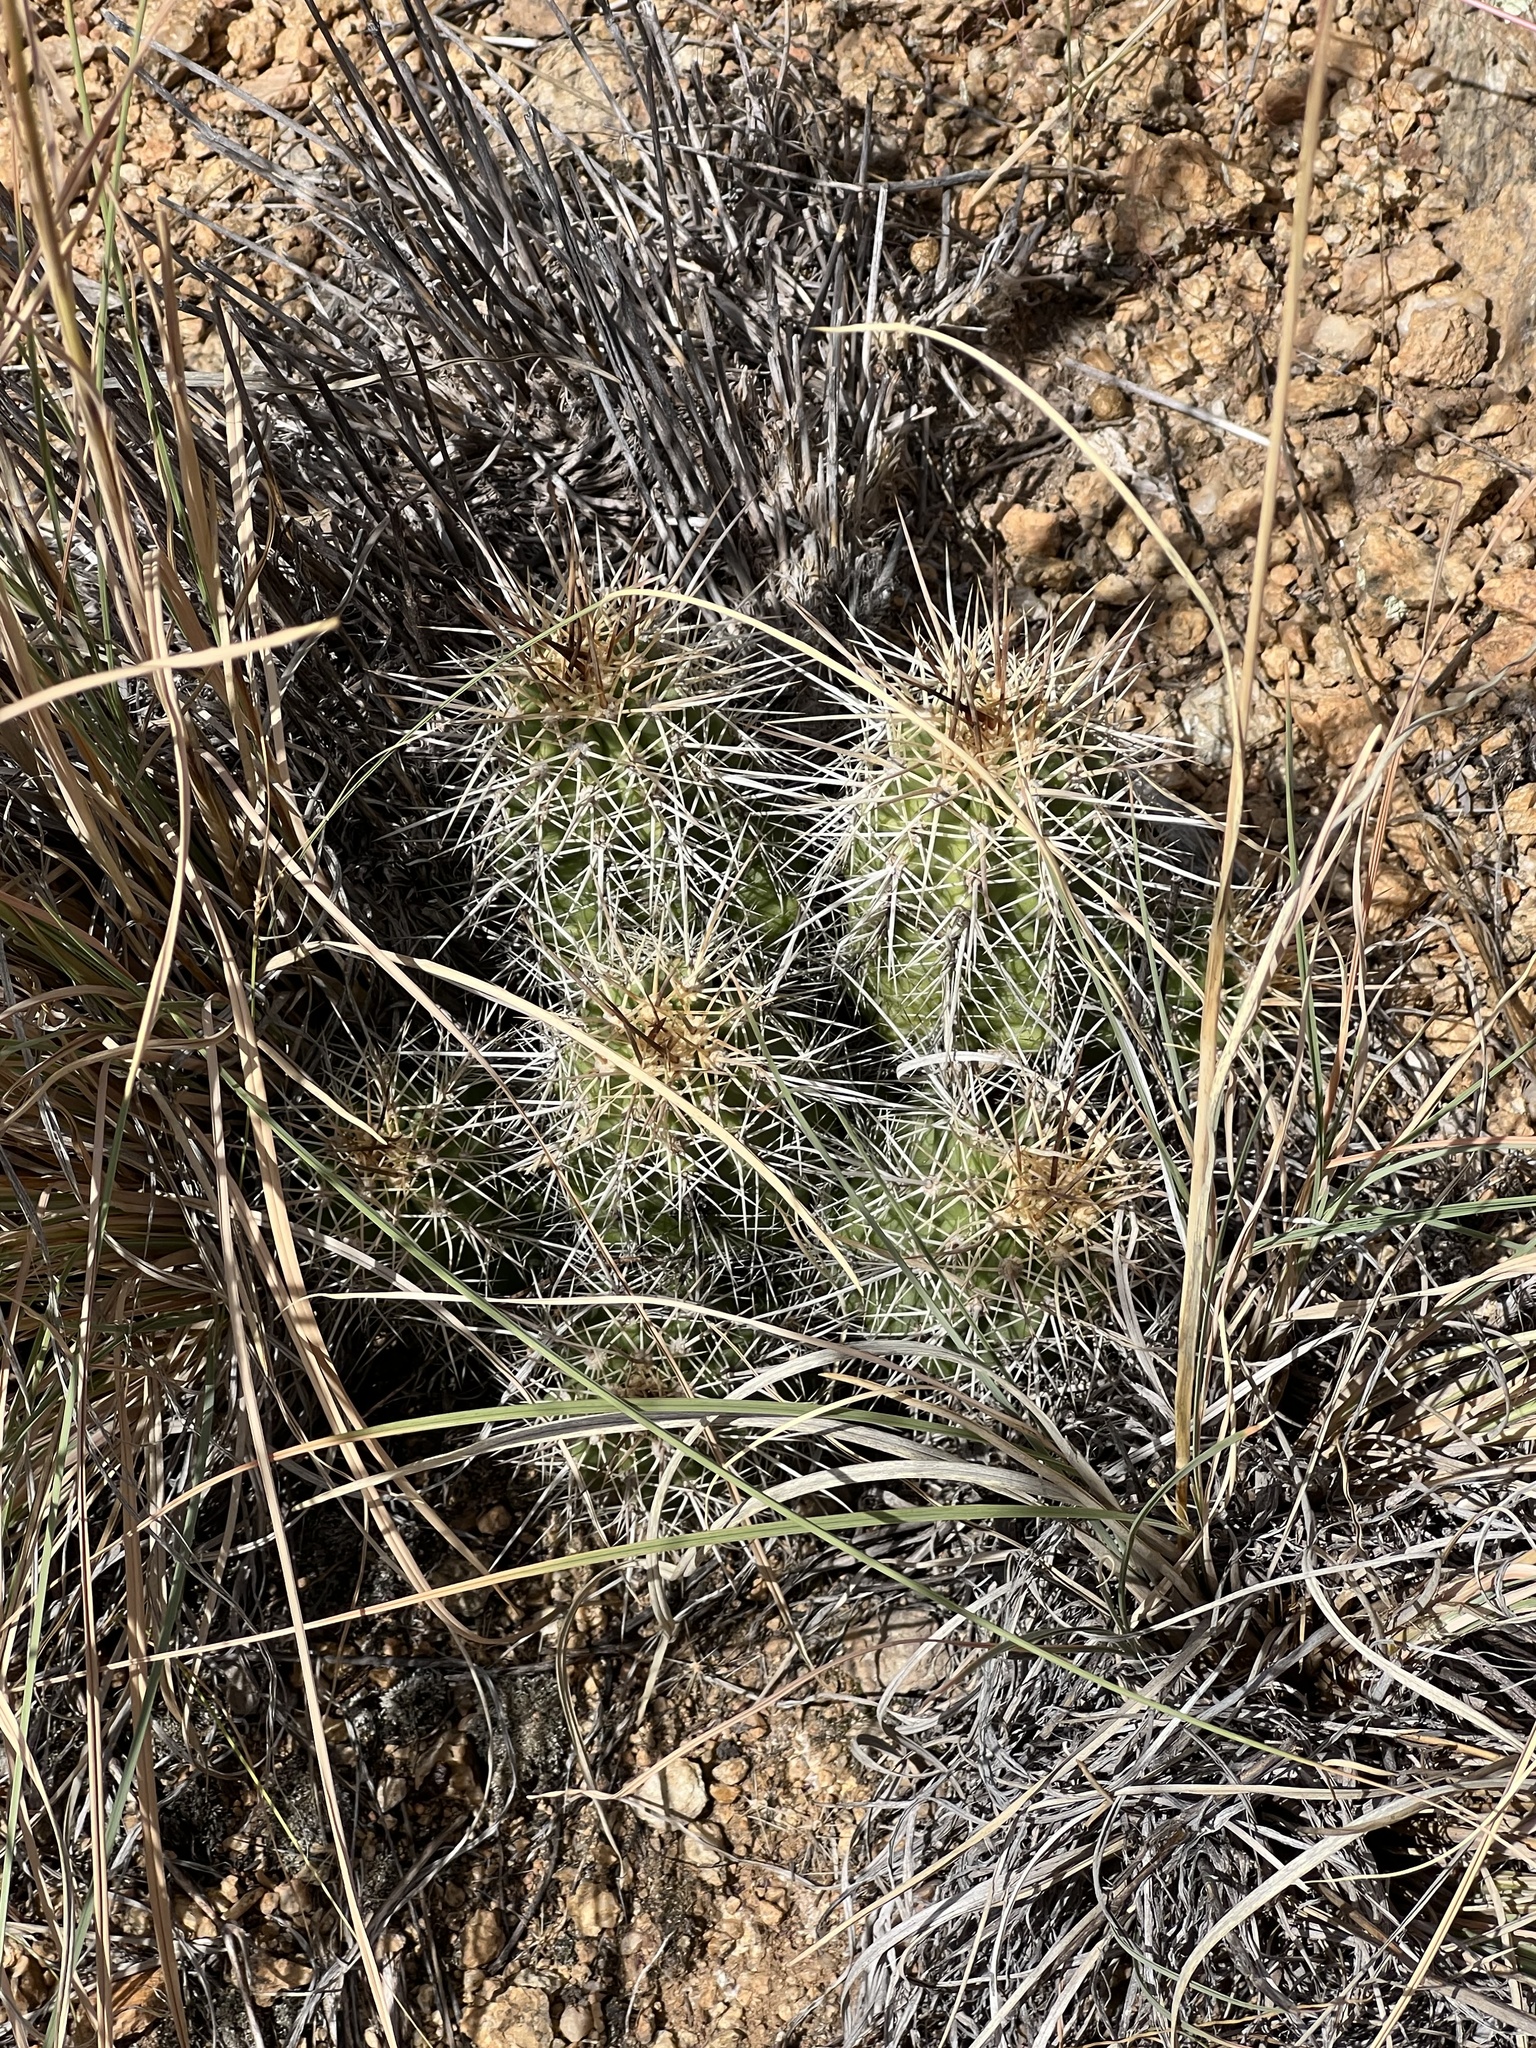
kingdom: Plantae
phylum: Tracheophyta
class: Magnoliopsida
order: Caryophyllales
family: Cactaceae
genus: Echinocereus
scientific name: Echinocereus bakeri
